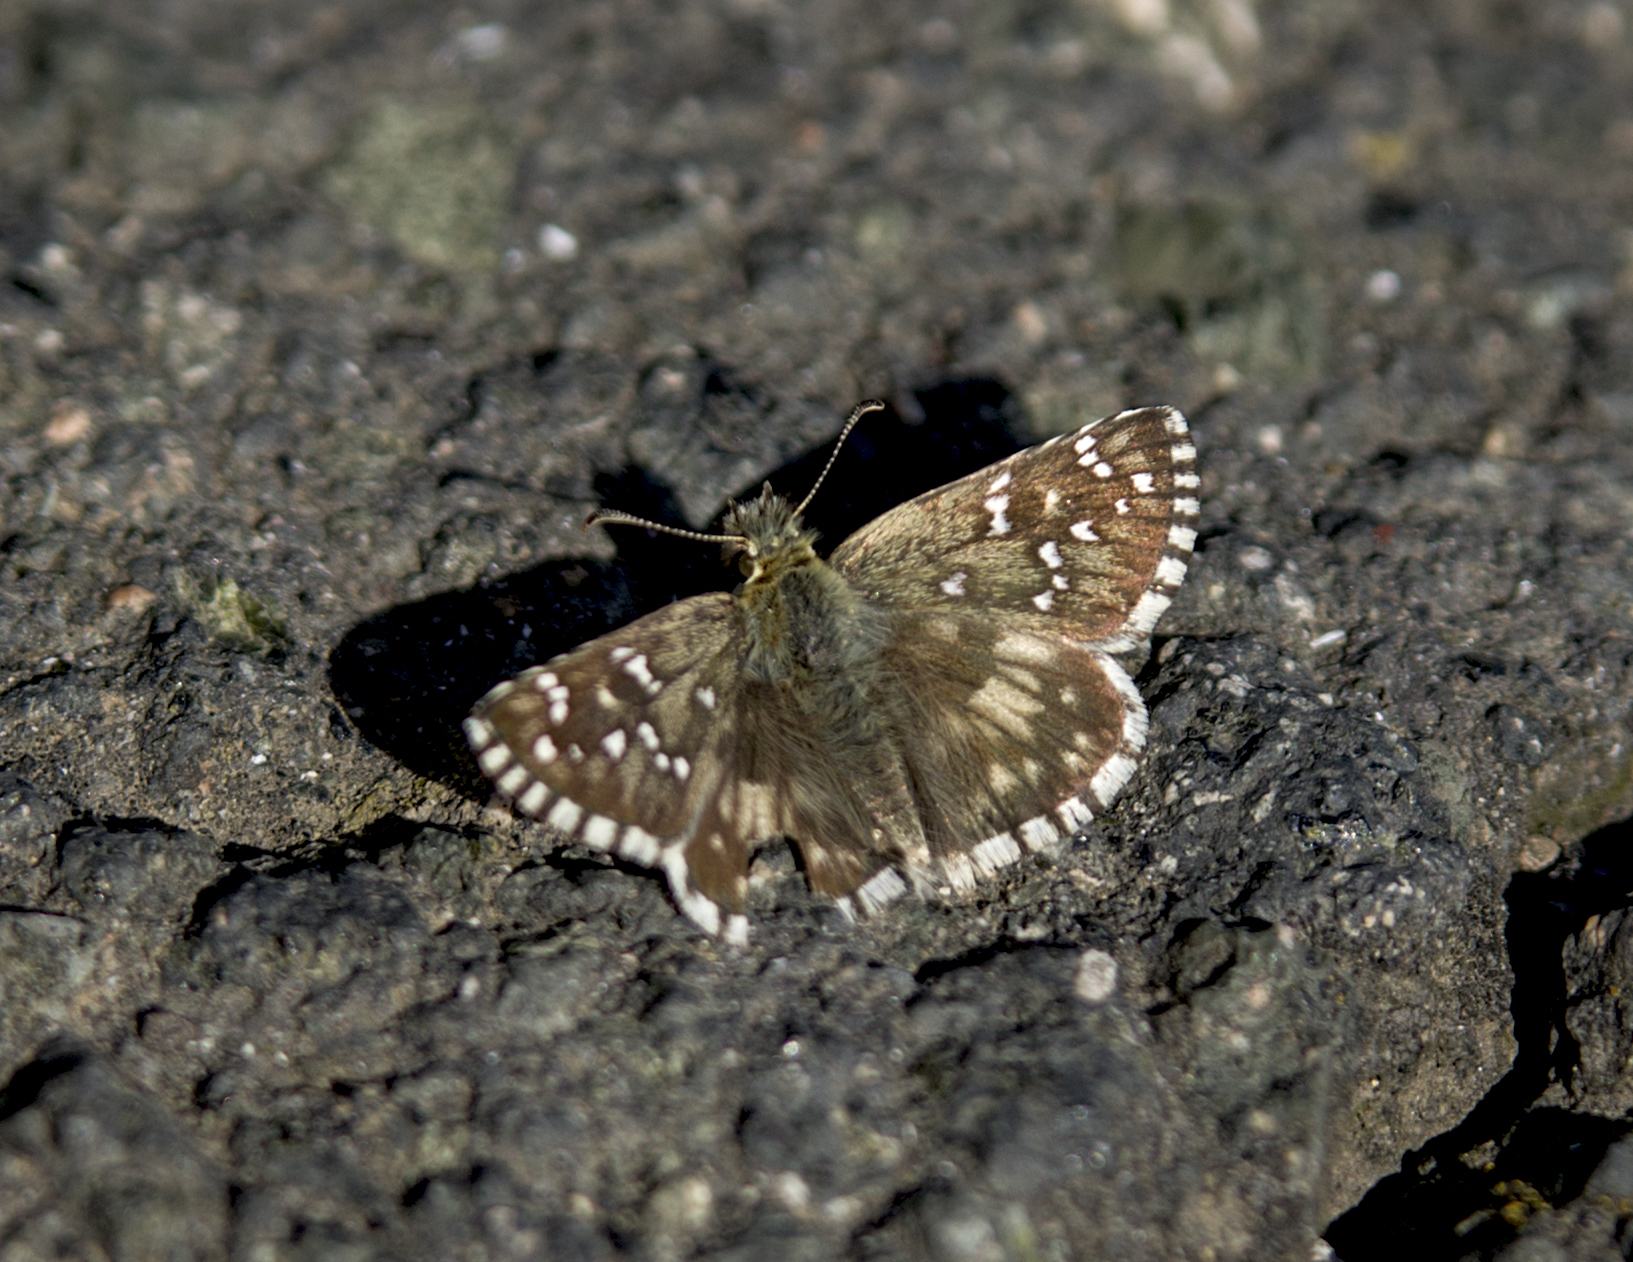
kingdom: Animalia
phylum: Arthropoda
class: Insecta
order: Lepidoptera
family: Hesperiidae
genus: Pyrgus
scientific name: Pyrgus armoricanus
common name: Oberthür's grizzled skipper
